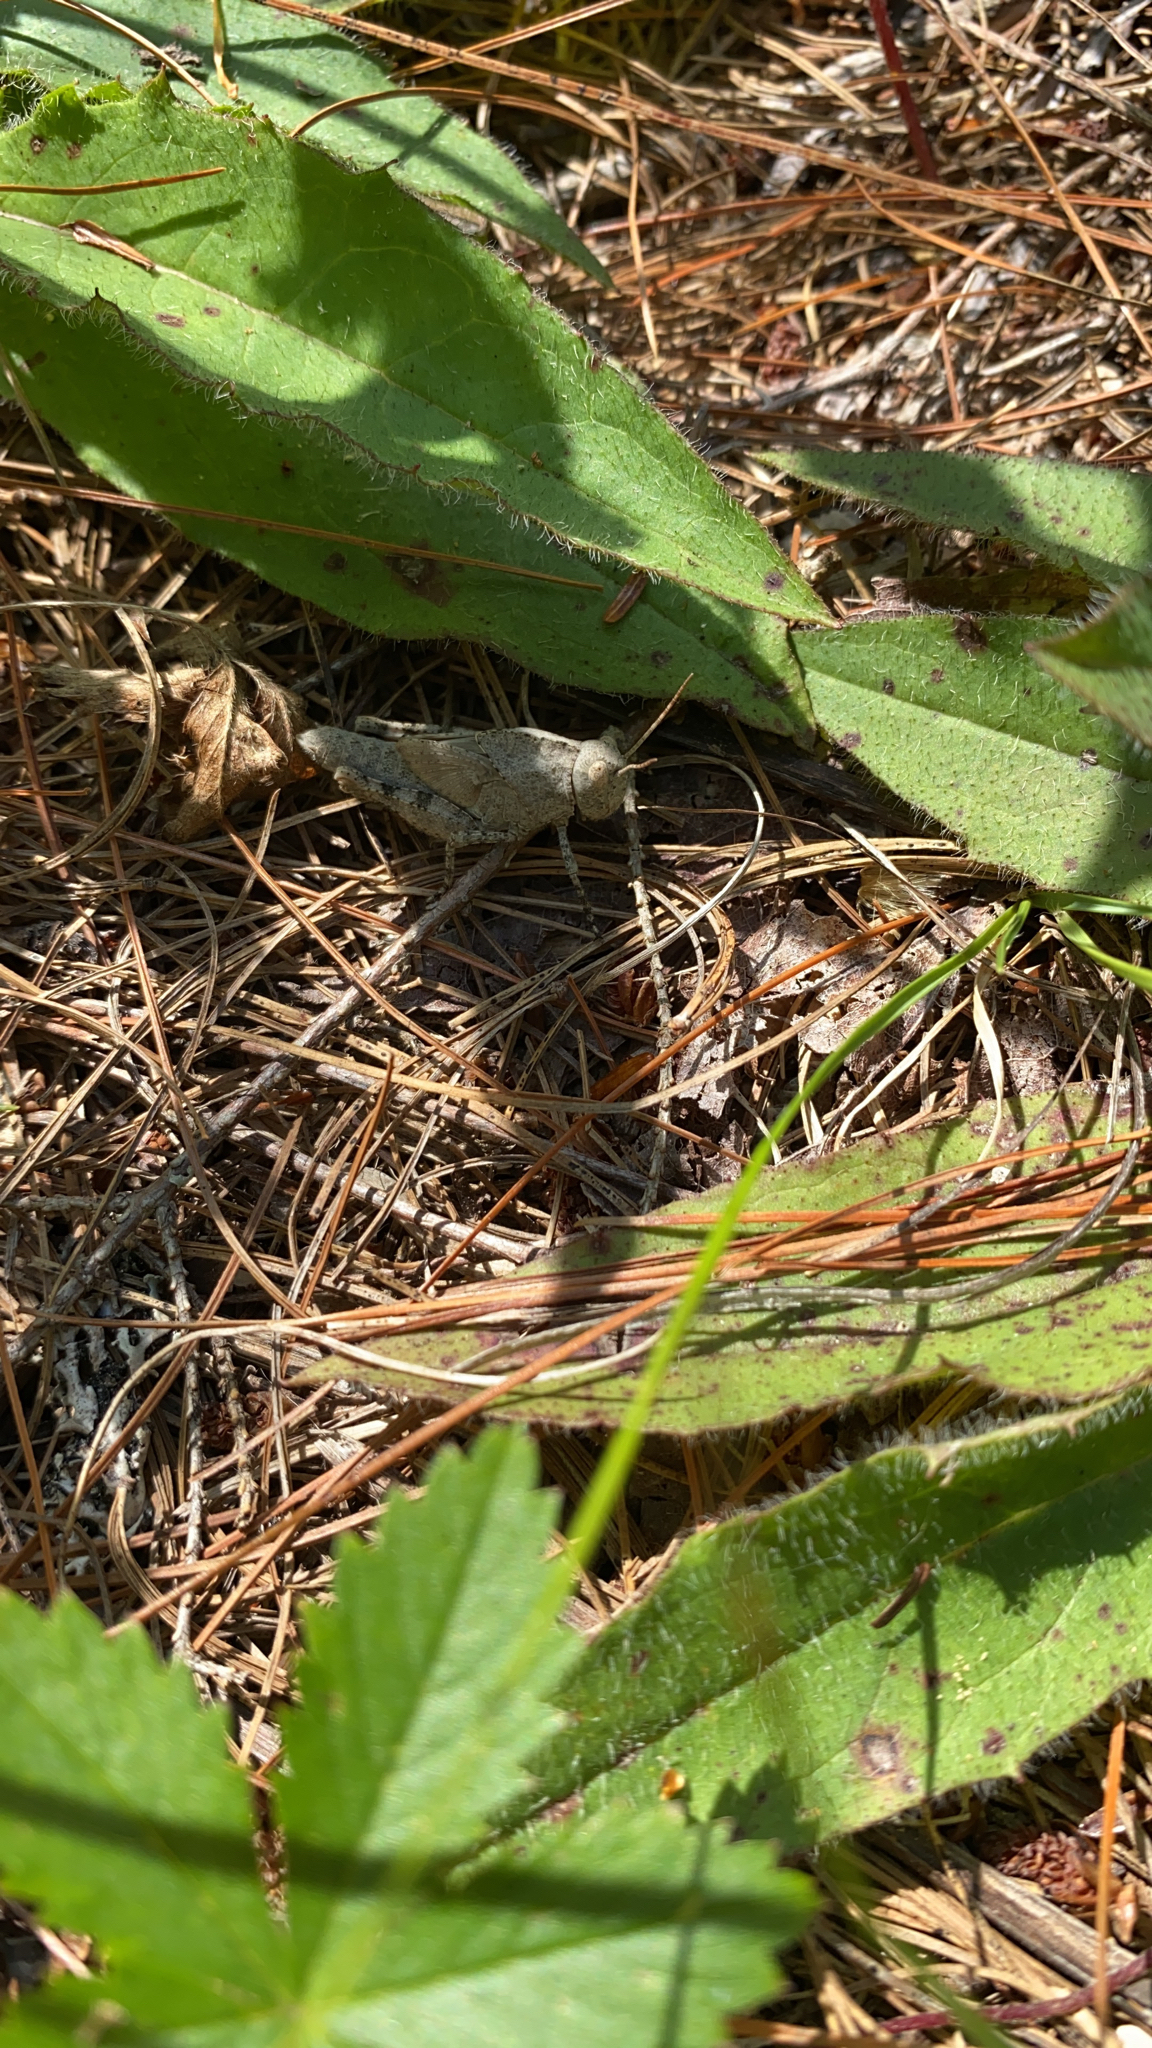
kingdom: Animalia
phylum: Arthropoda
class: Insecta
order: Orthoptera
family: Acrididae
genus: Dissosteira
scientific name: Dissosteira carolina
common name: Carolina grasshopper
